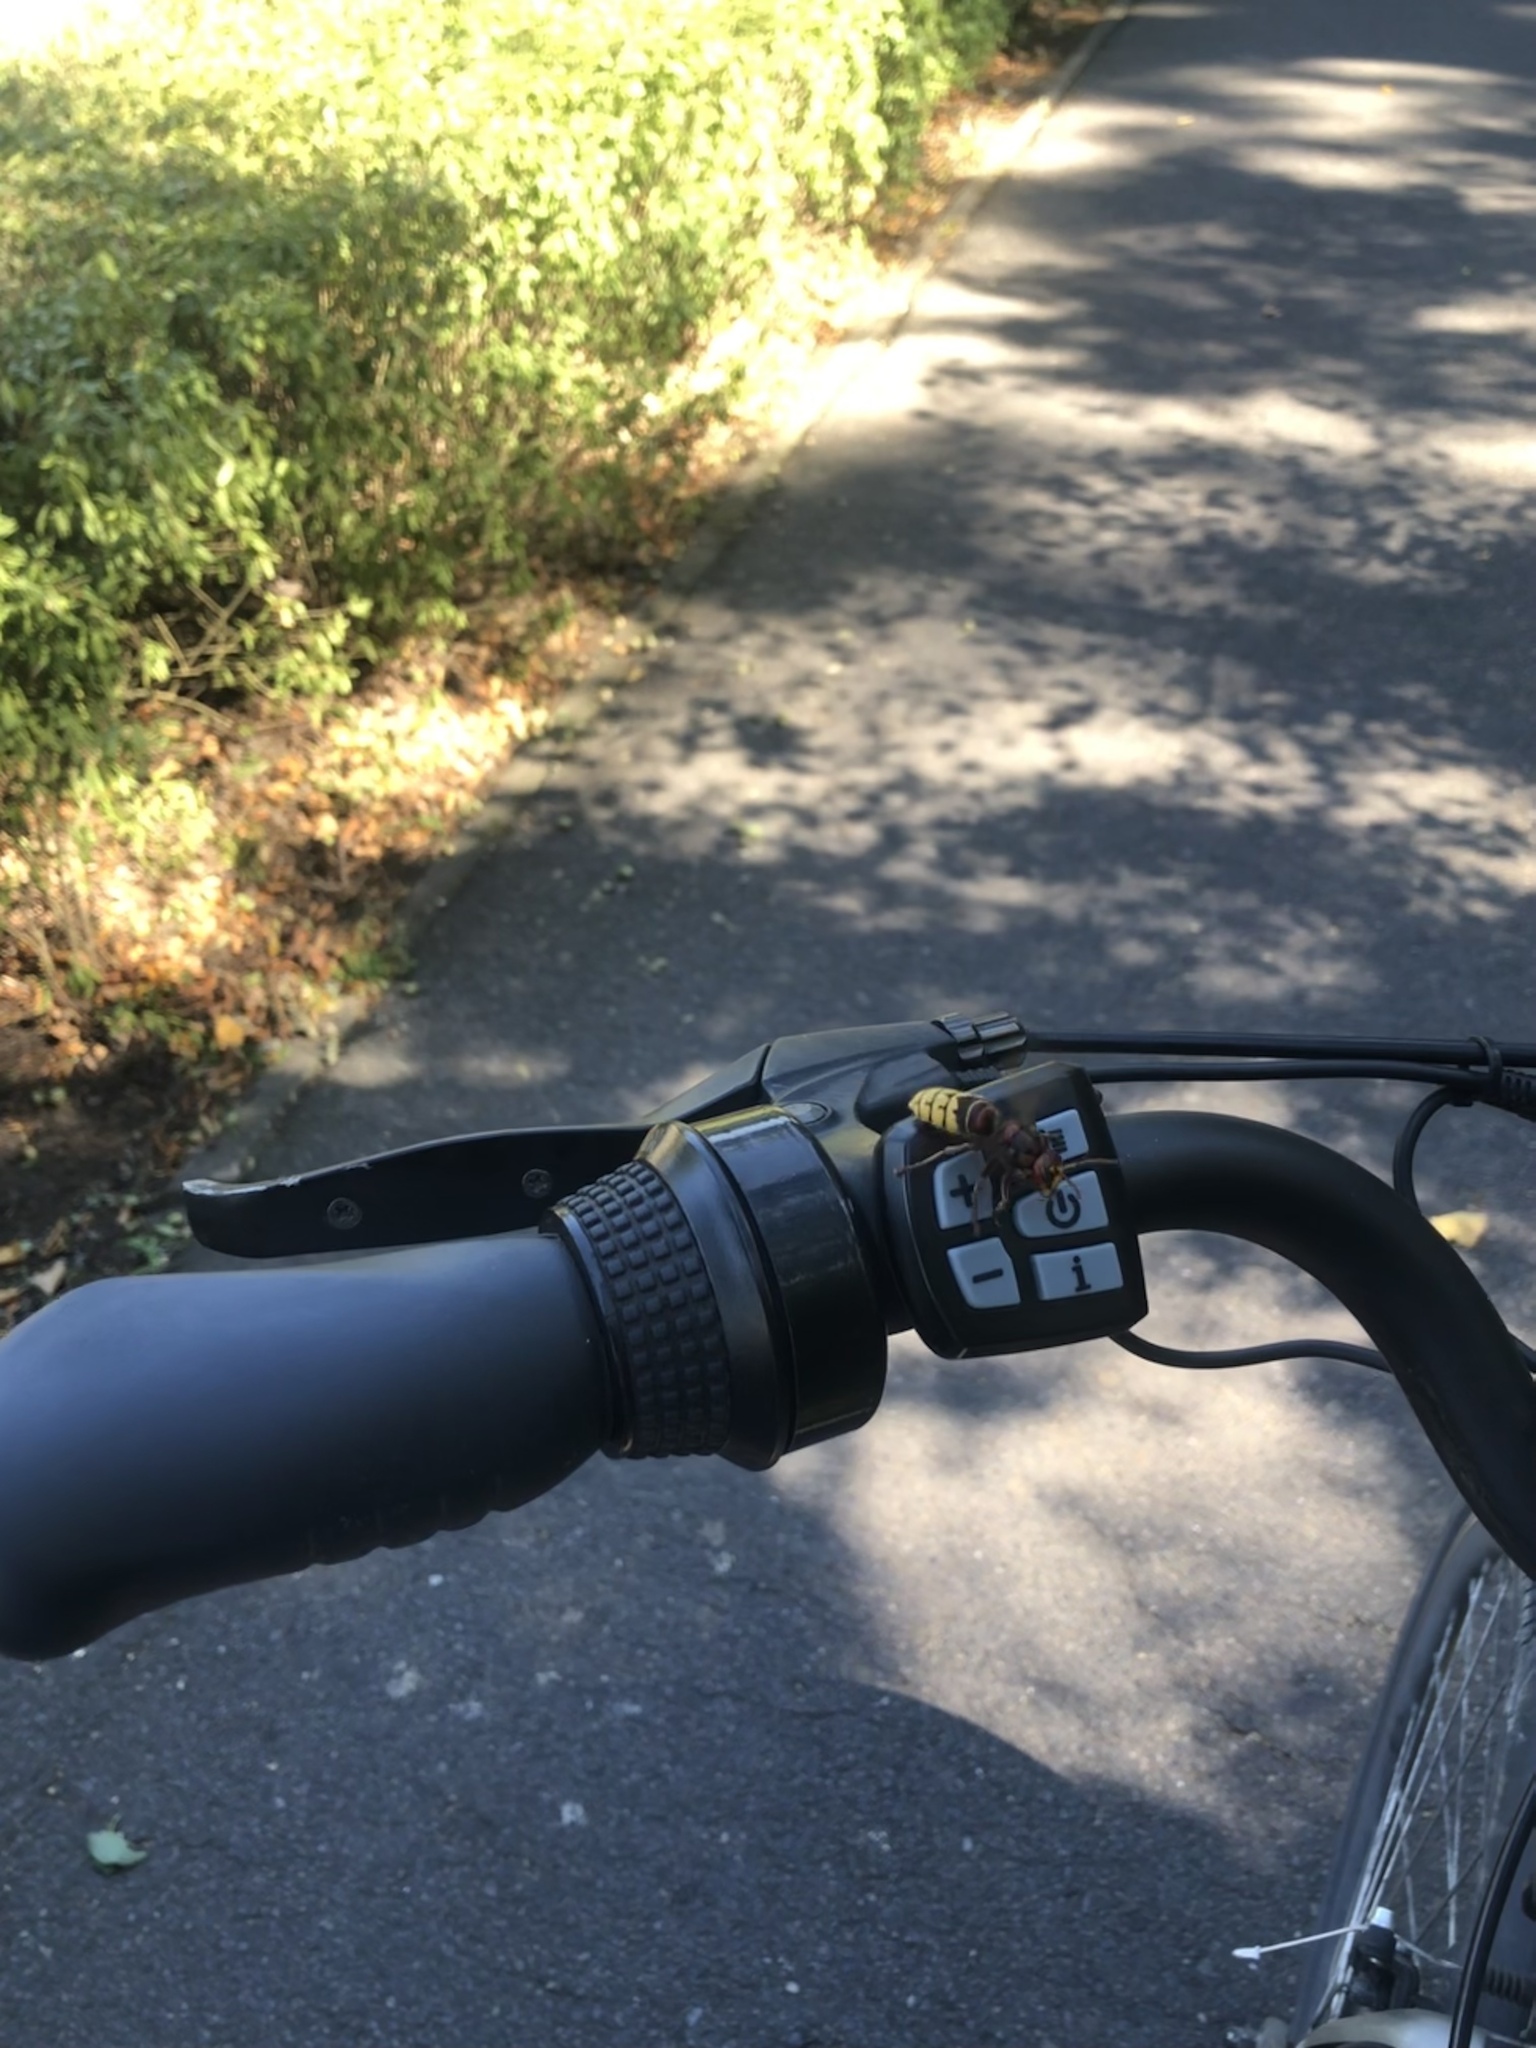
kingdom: Animalia
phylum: Arthropoda
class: Insecta
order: Hymenoptera
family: Vespidae
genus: Vespa
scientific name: Vespa crabro
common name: Hornet
